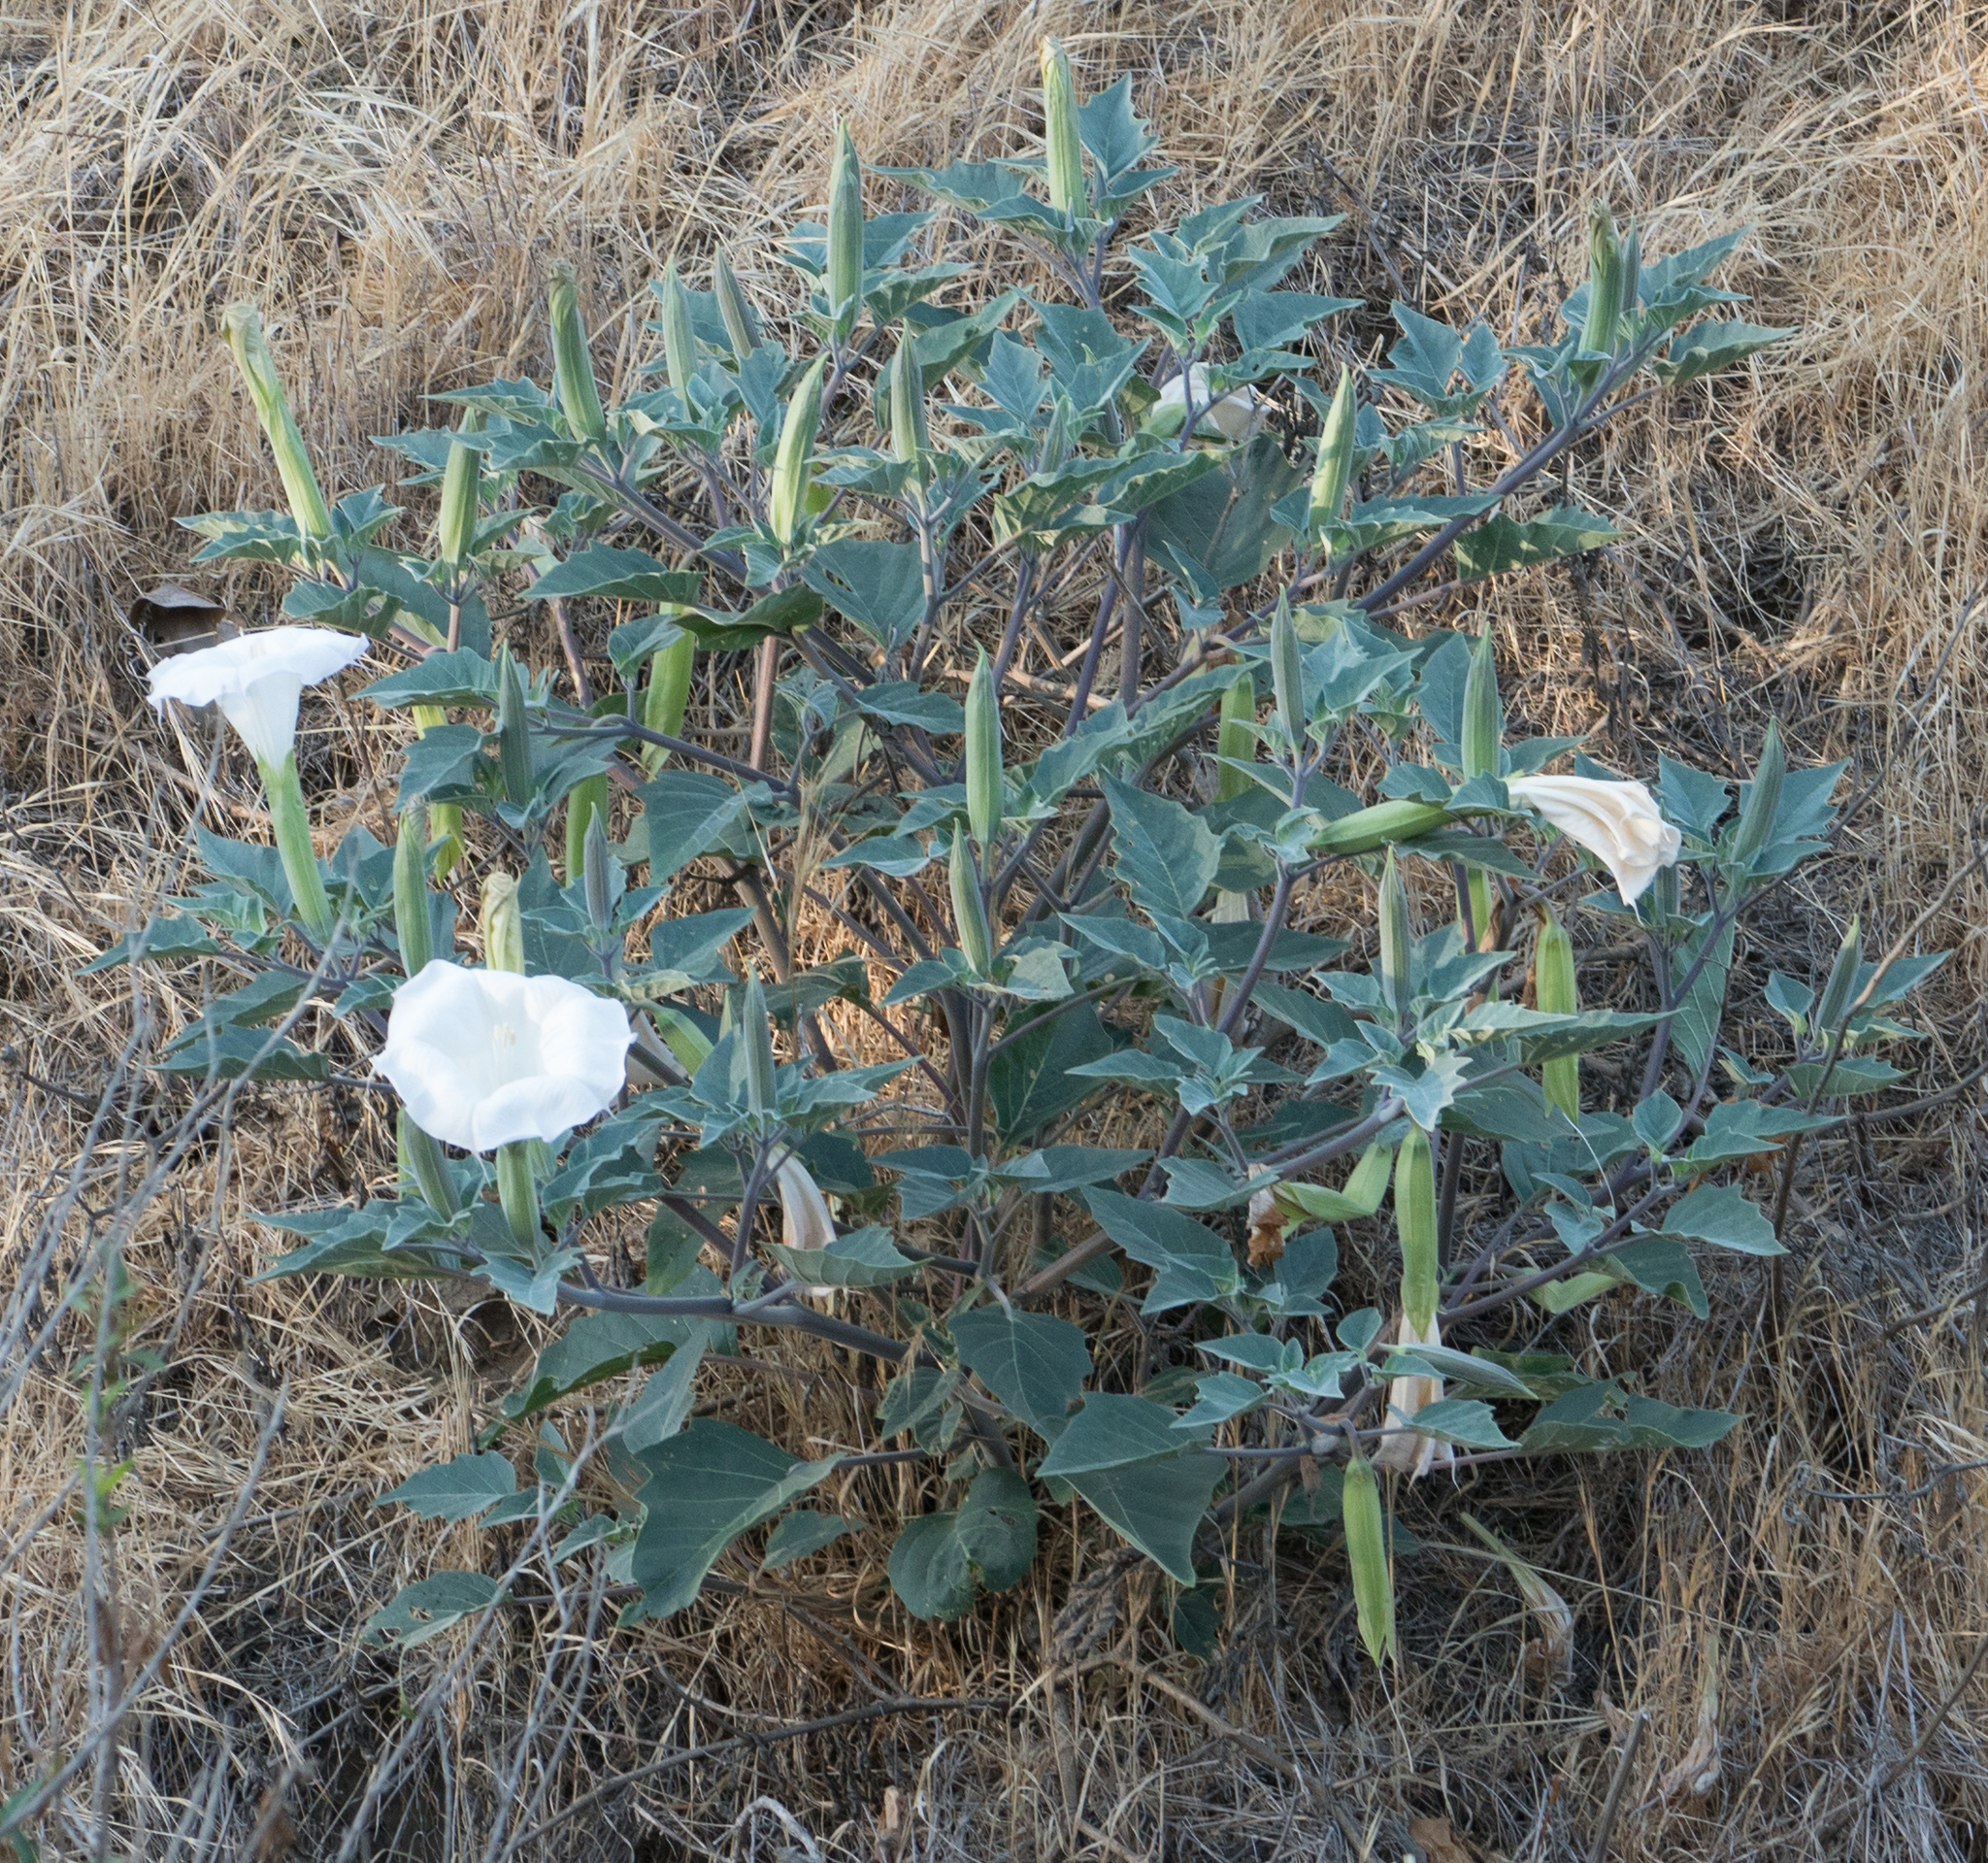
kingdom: Plantae
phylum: Tracheophyta
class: Magnoliopsida
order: Solanales
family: Solanaceae
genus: Datura
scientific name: Datura wrightii
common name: Sacred thorn-apple
